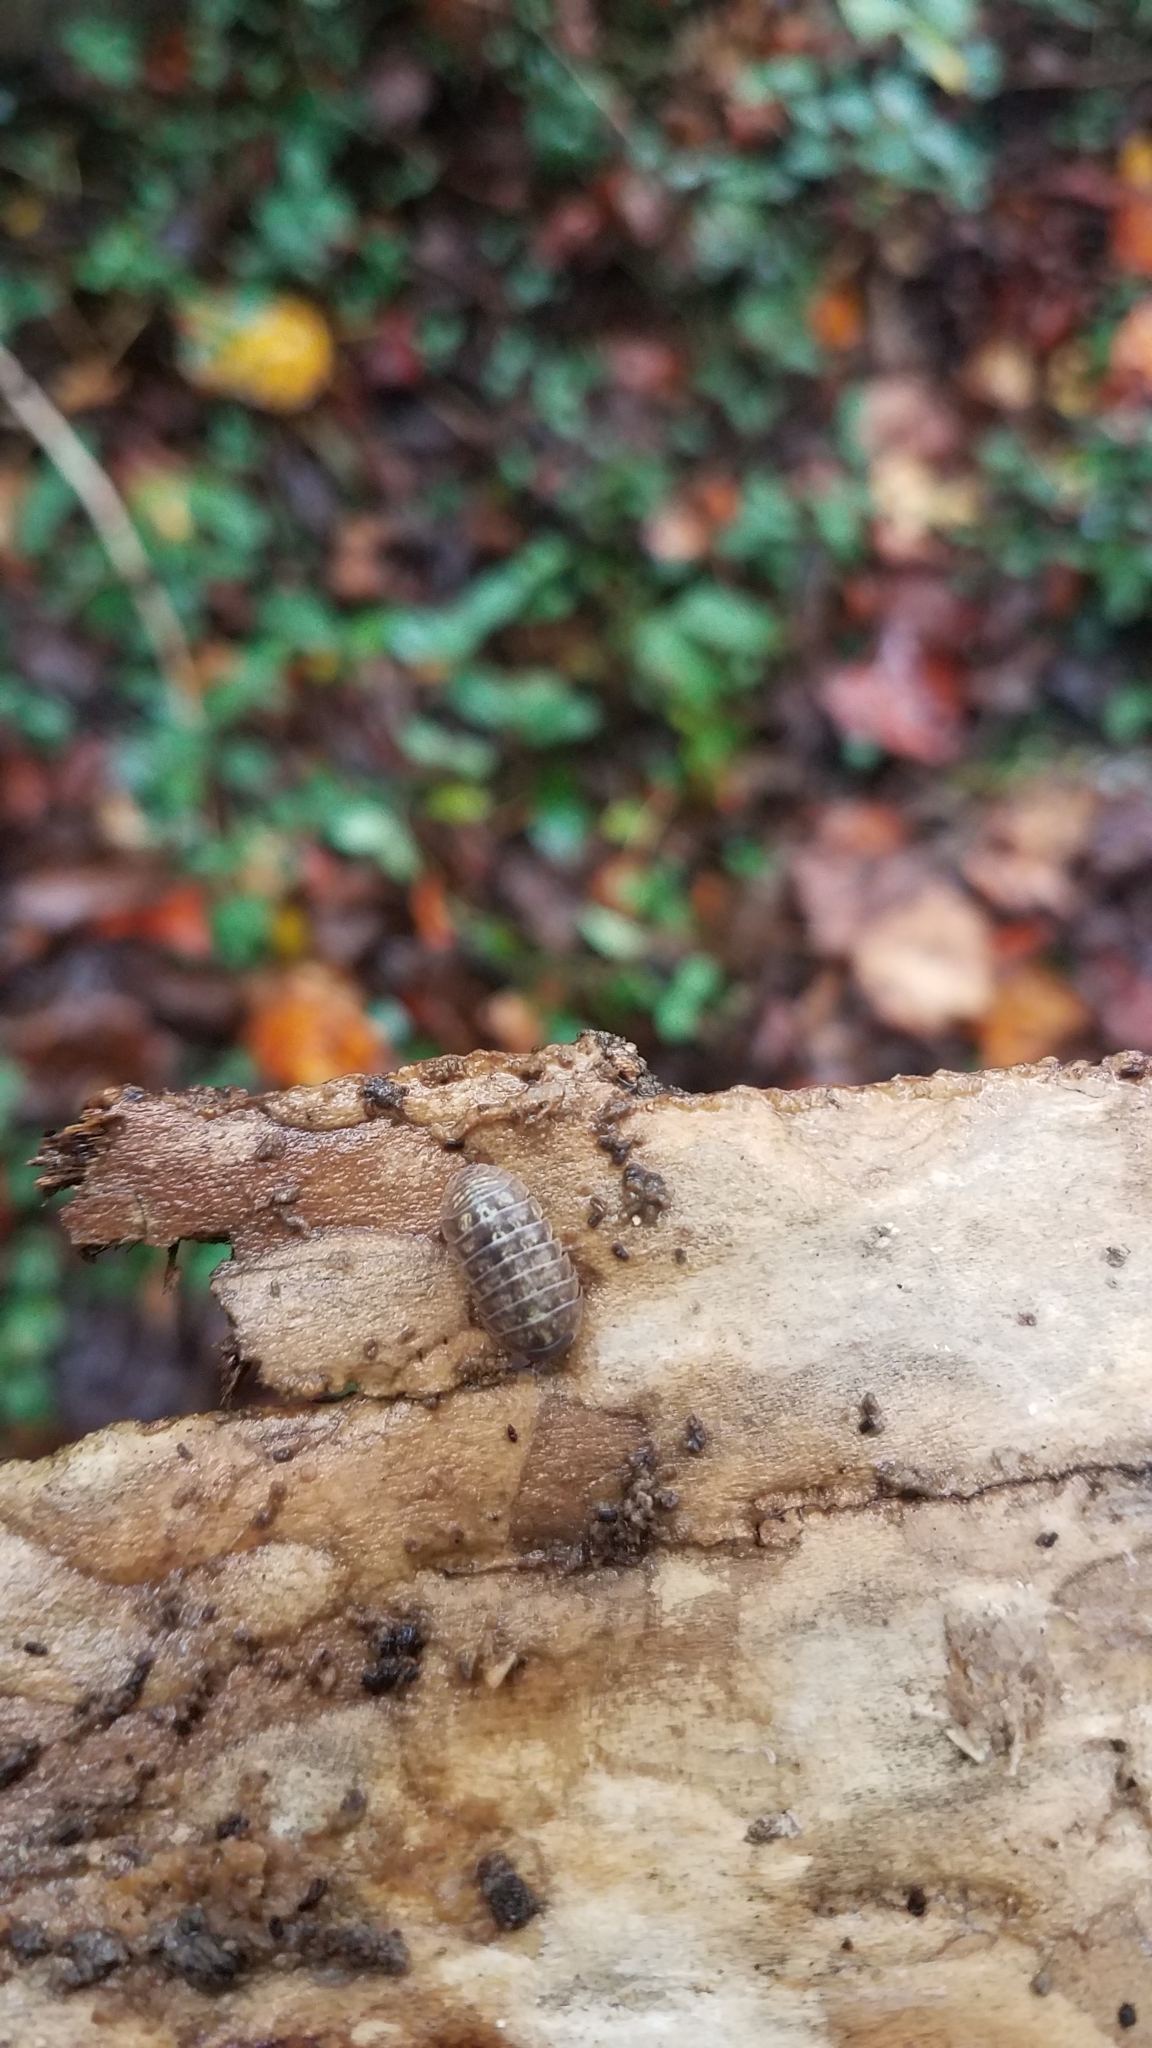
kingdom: Animalia
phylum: Arthropoda
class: Malacostraca
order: Isopoda
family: Armadillidiidae
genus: Armadillidium
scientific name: Armadillidium vulgare
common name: Common pill woodlouse
